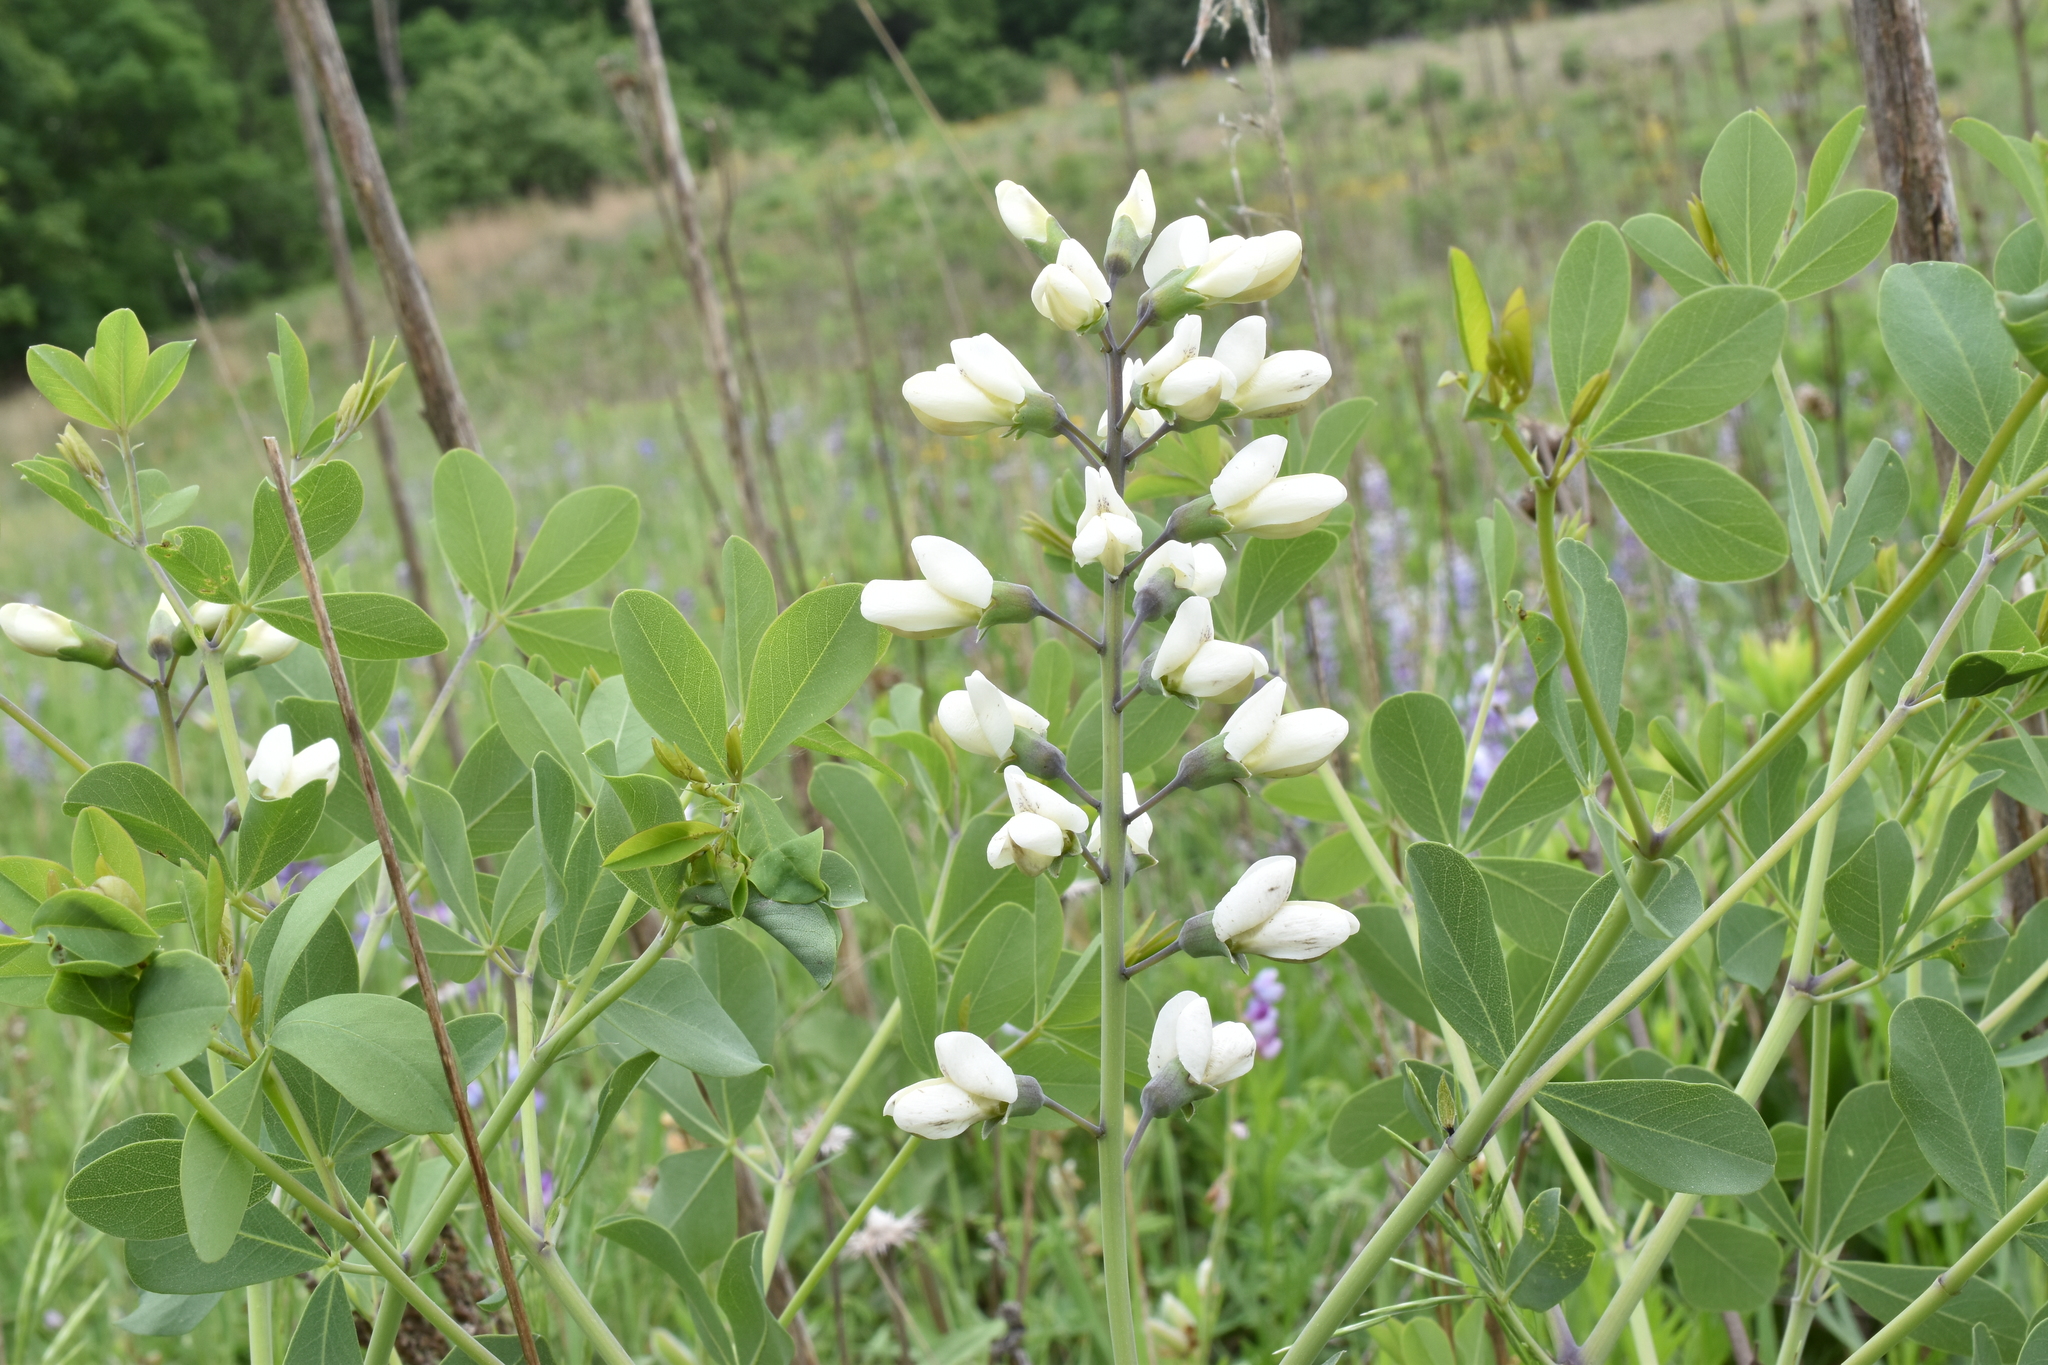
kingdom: Plantae
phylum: Tracheophyta
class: Magnoliopsida
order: Fabales
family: Fabaceae
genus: Baptisia
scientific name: Baptisia alba
